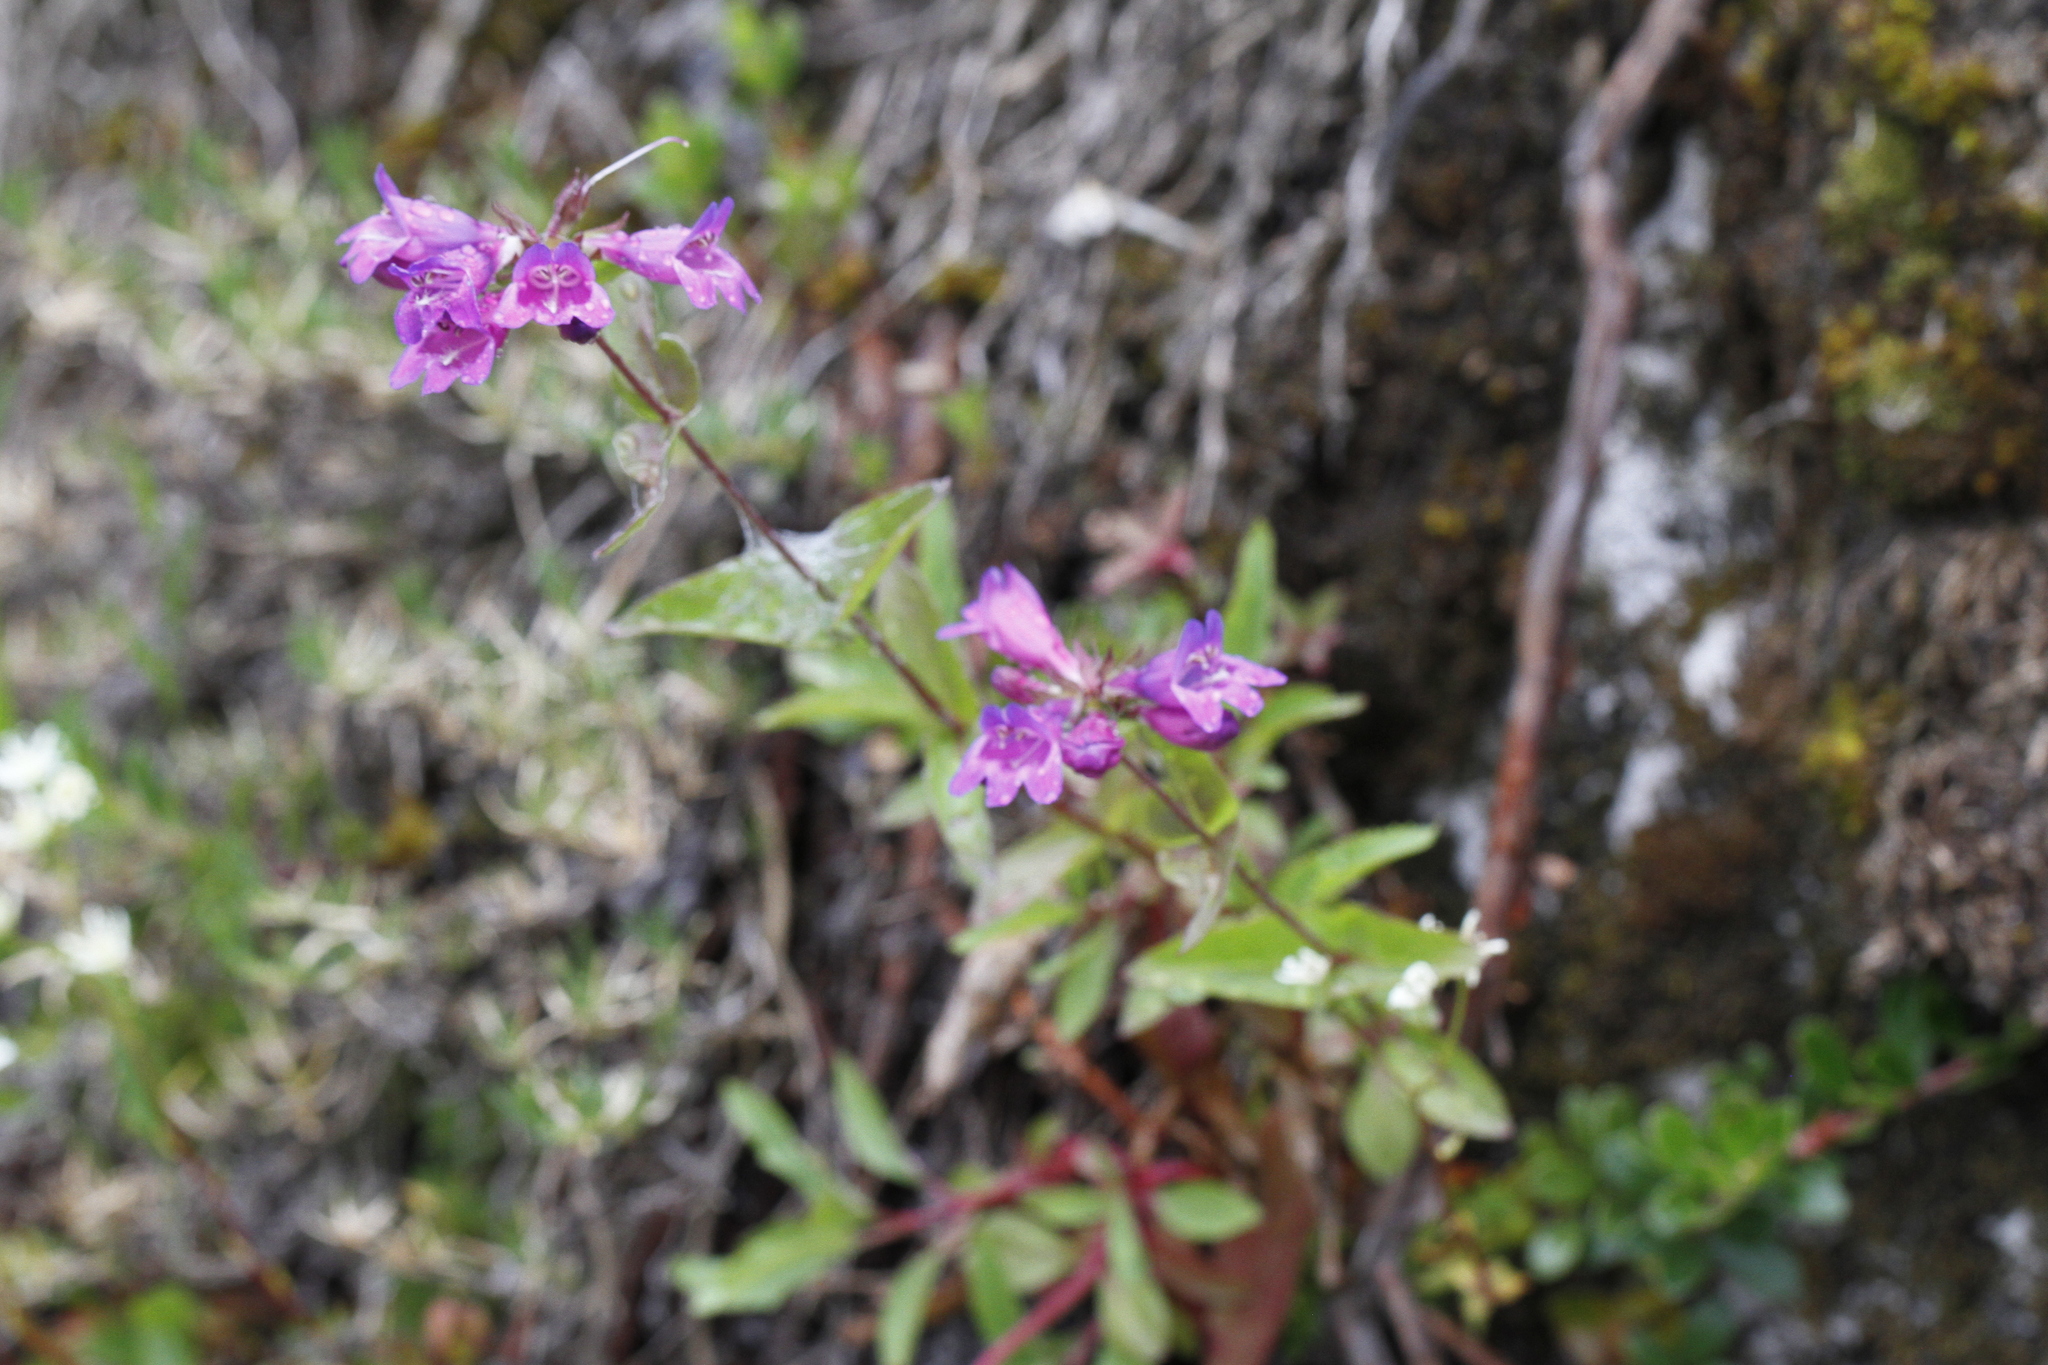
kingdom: Plantae
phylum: Tracheophyta
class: Magnoliopsida
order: Lamiales
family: Plantaginaceae
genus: Penstemon
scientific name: Penstemon serrulatus
